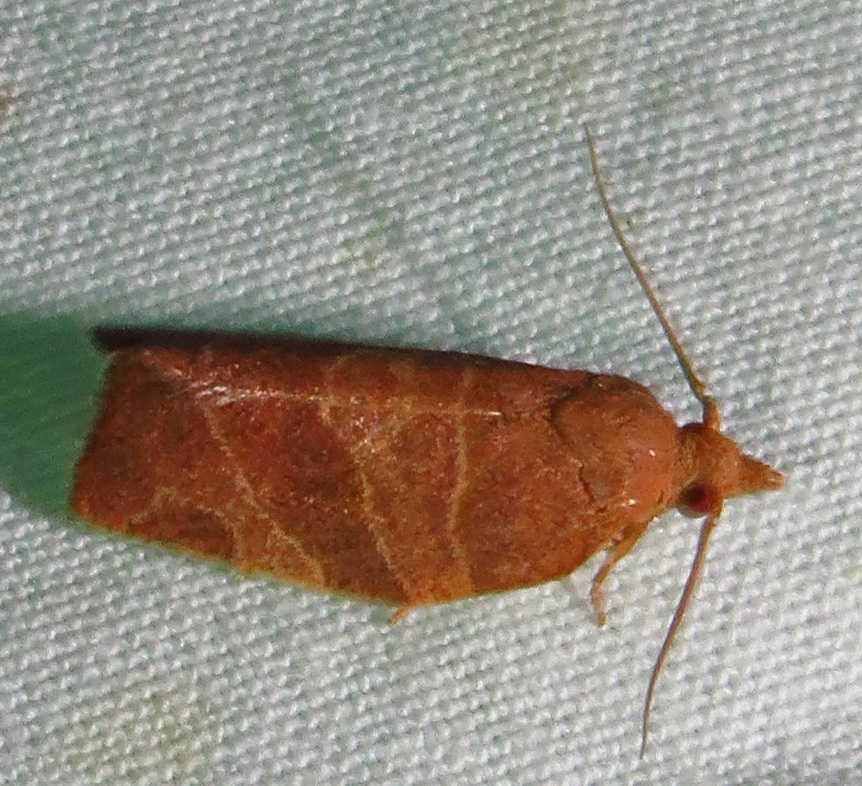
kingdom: Animalia
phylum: Arthropoda
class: Insecta
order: Lepidoptera
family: Tortricidae
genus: Pandemis
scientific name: Pandemis limitata
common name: Three-lined leafroller moth
